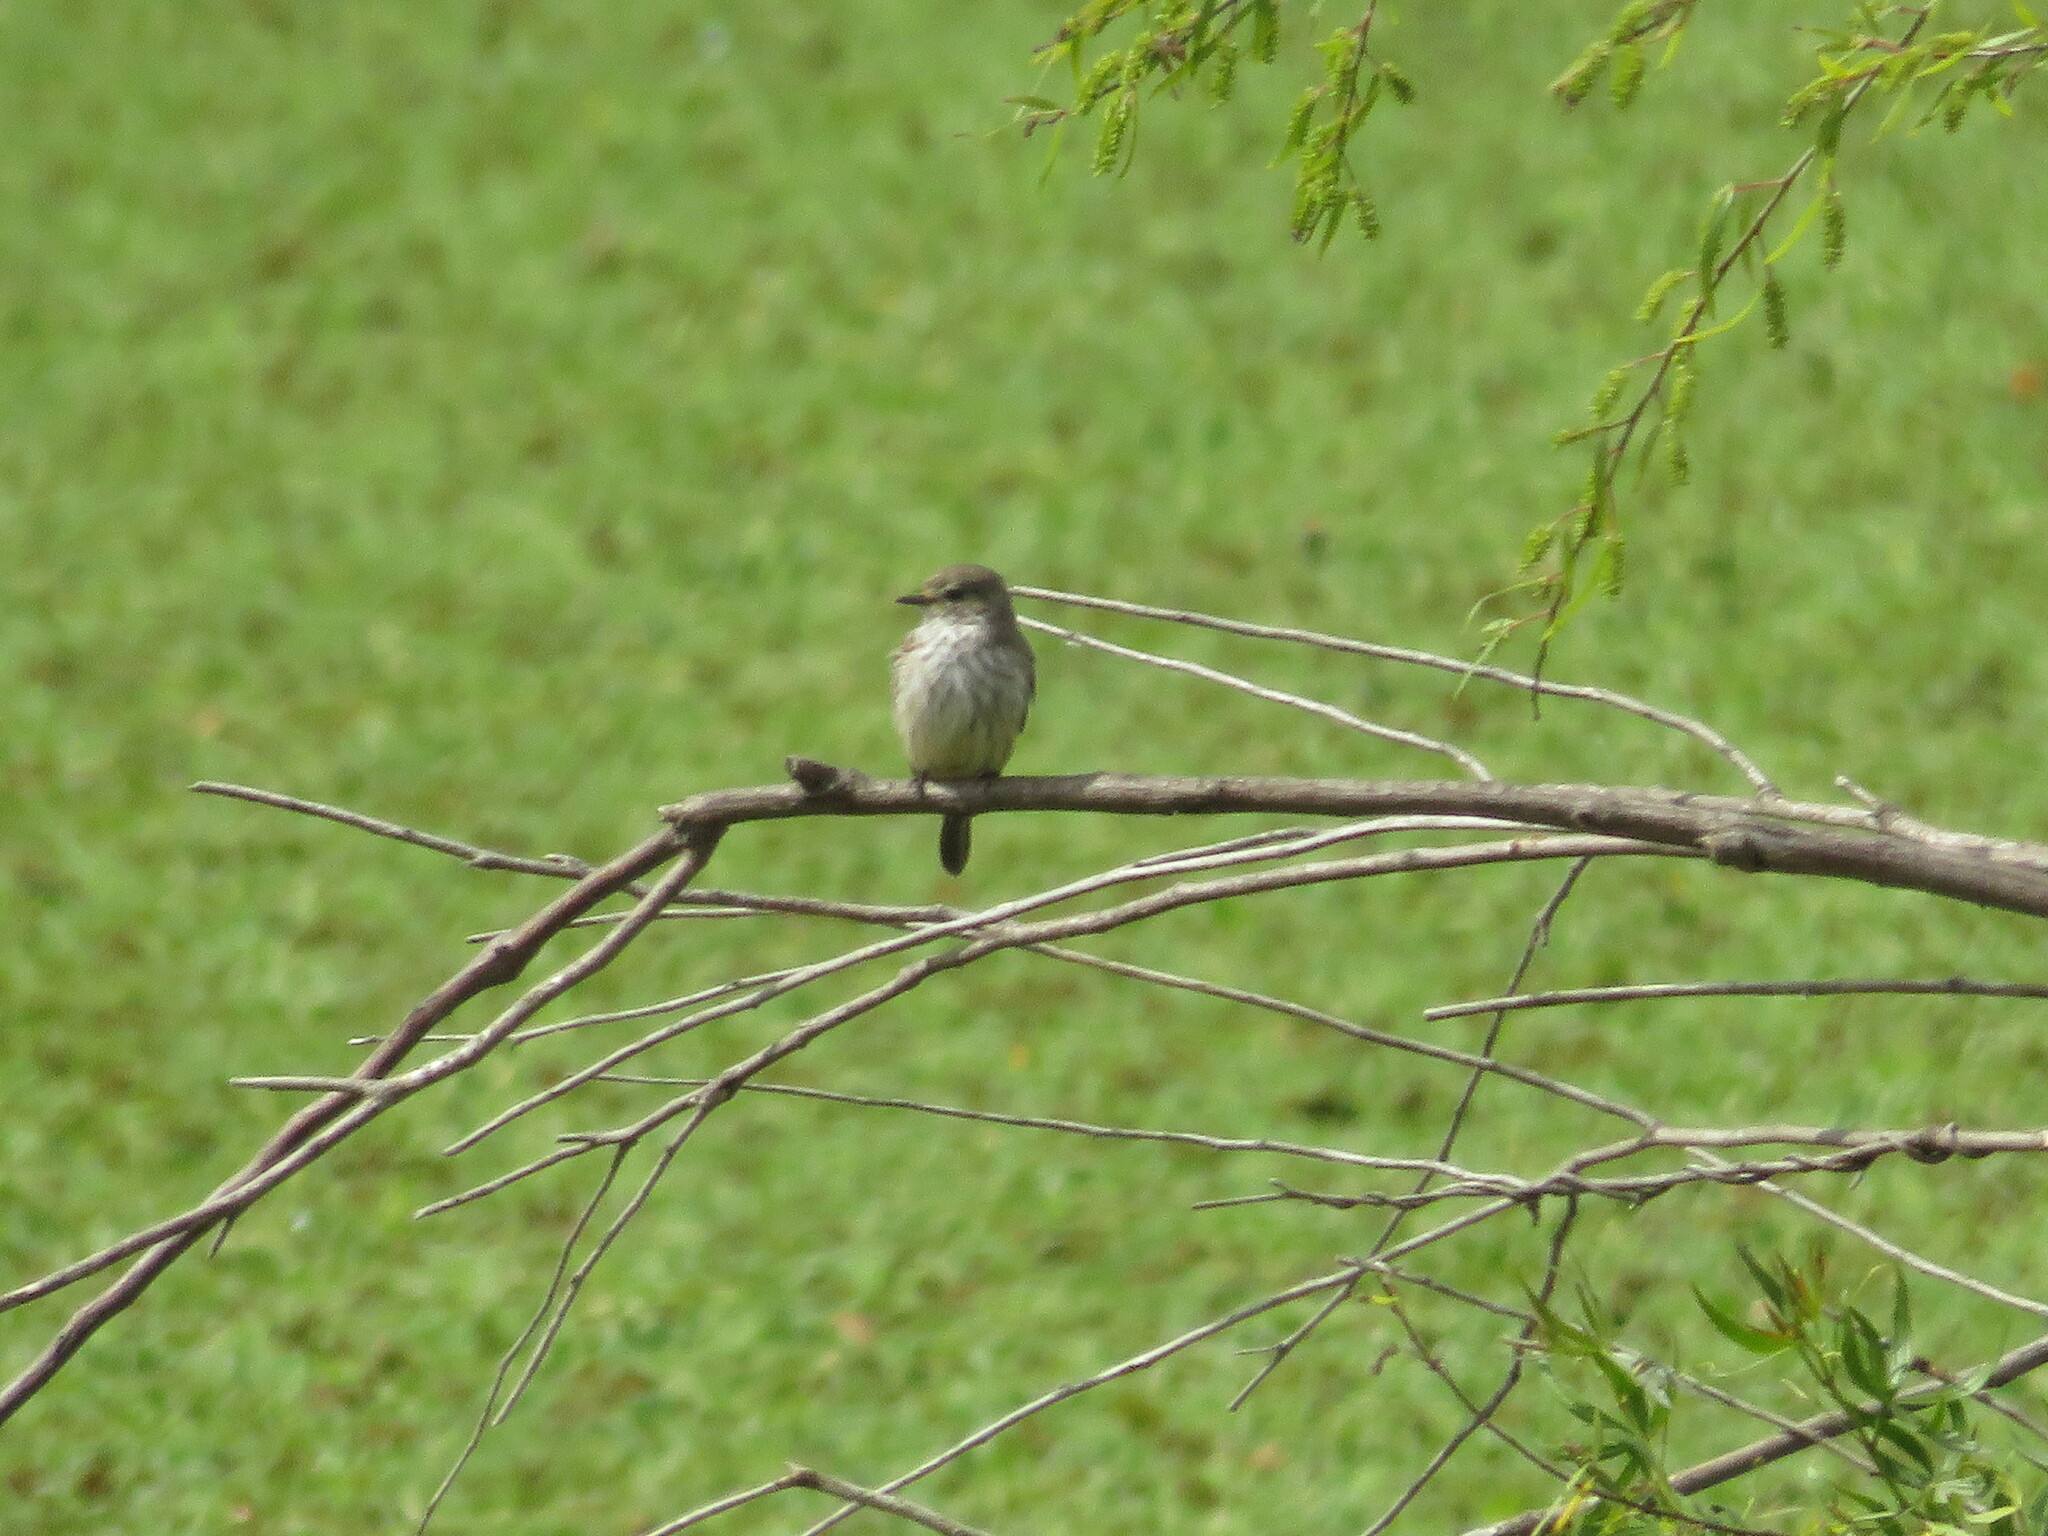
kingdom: Animalia
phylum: Chordata
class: Aves
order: Passeriformes
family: Tyrannidae
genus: Pyrocephalus
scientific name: Pyrocephalus rubinus
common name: Vermilion flycatcher
